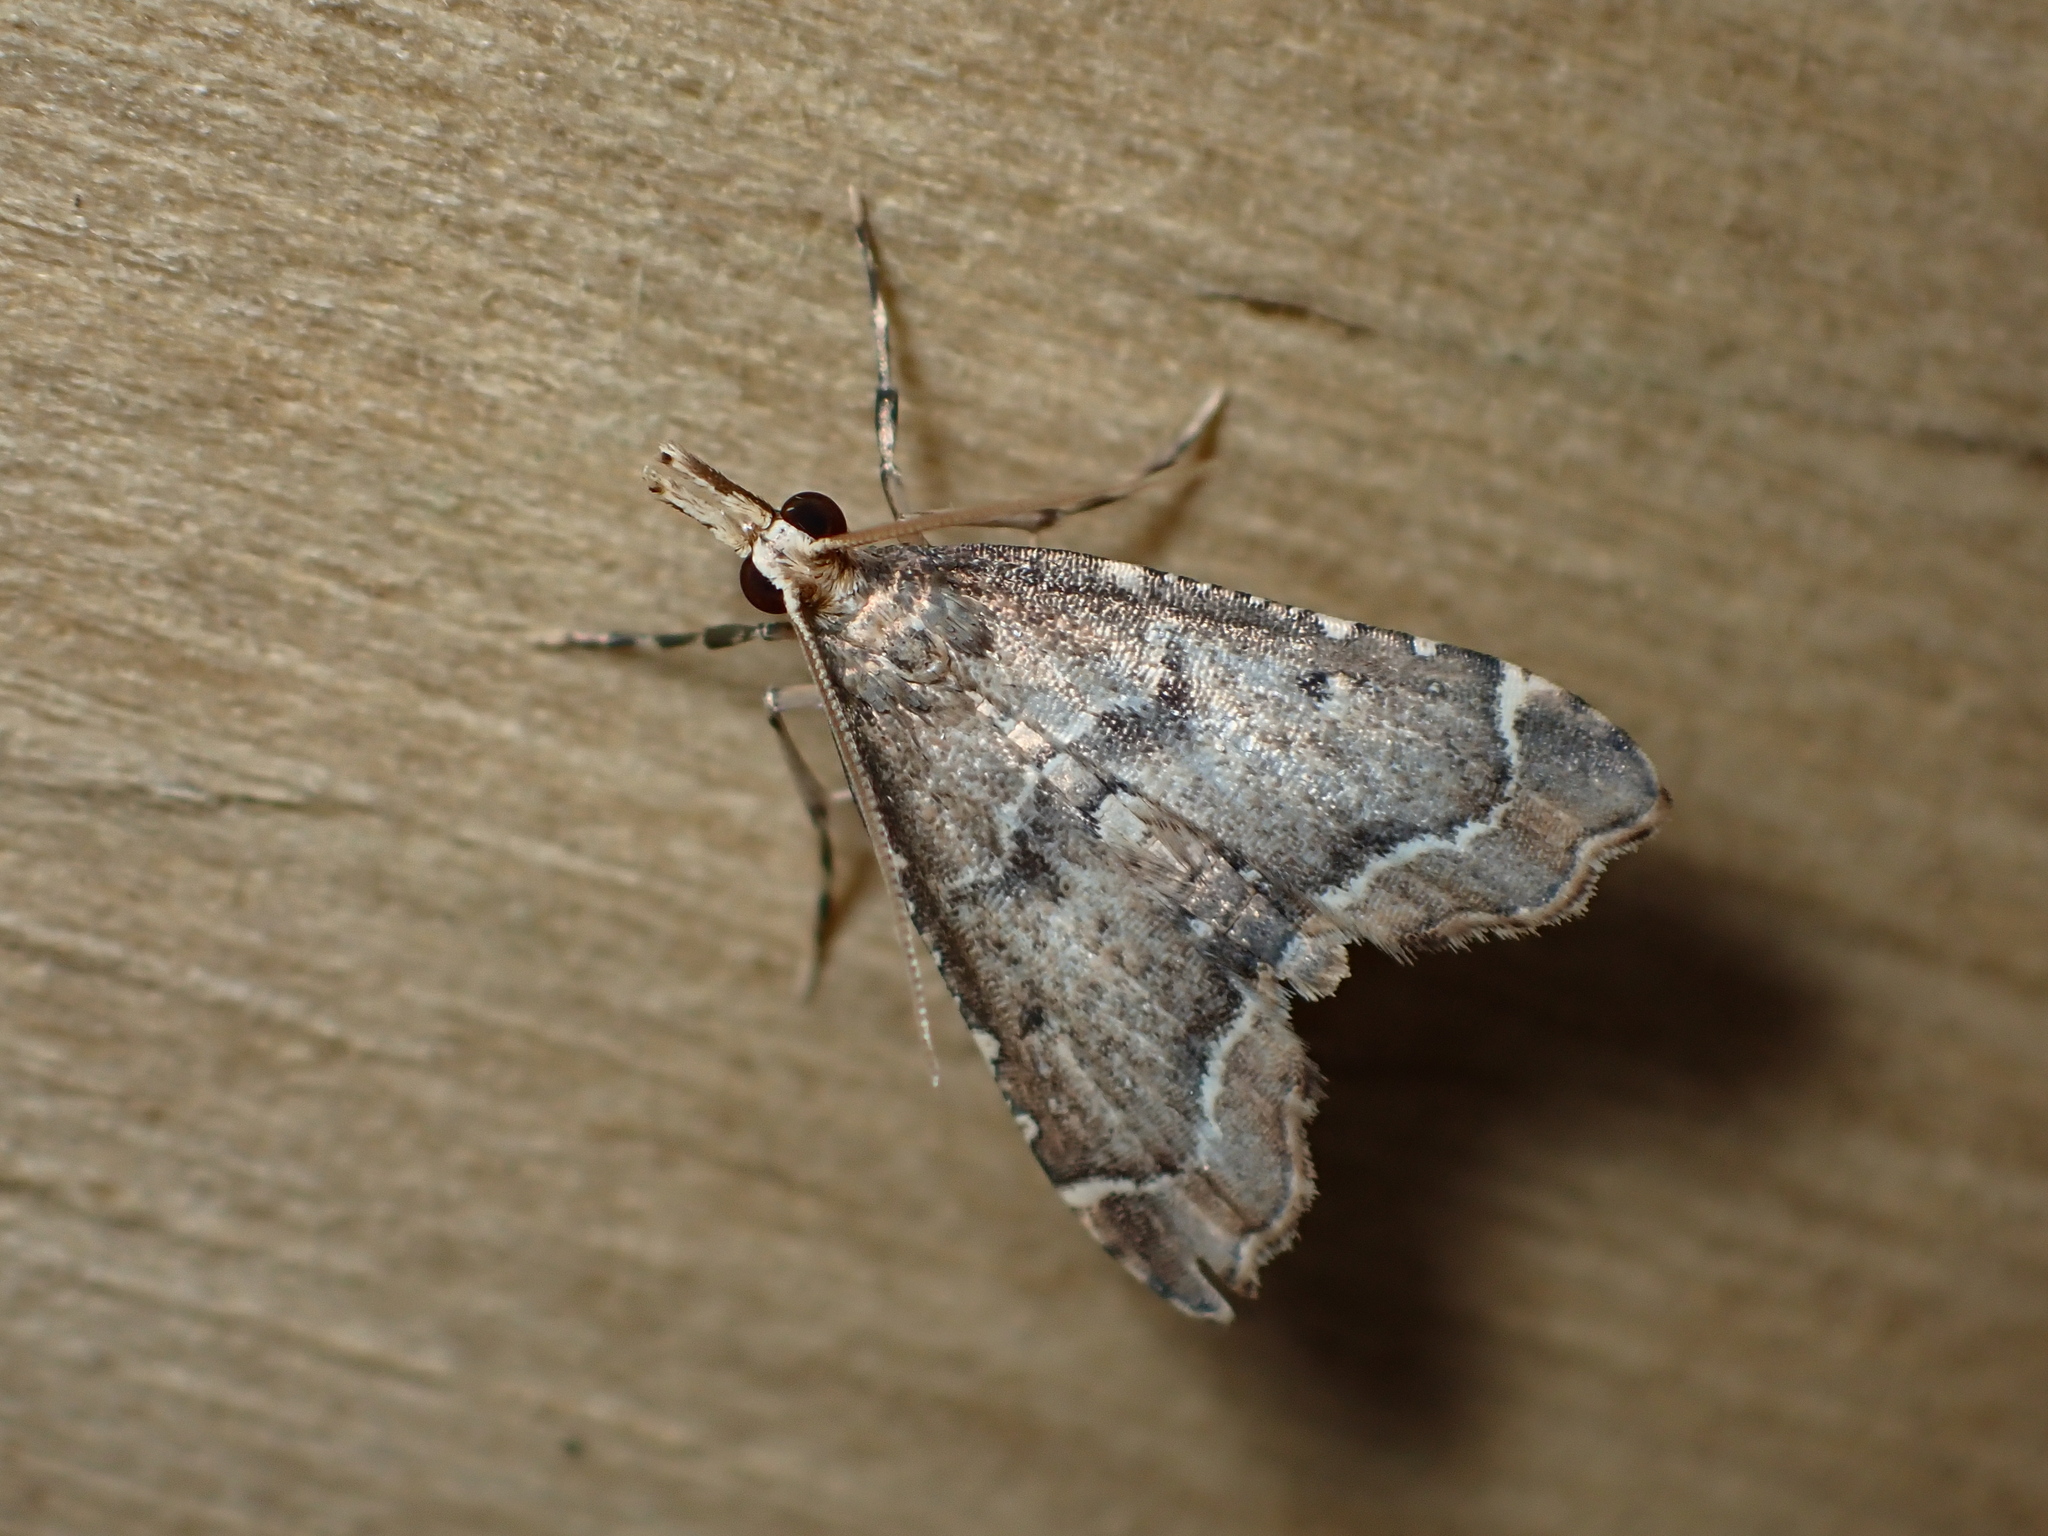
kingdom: Animalia
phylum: Arthropoda
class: Insecta
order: Lepidoptera
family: Crambidae
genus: Diplopseustis
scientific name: Diplopseustis perieresalis
